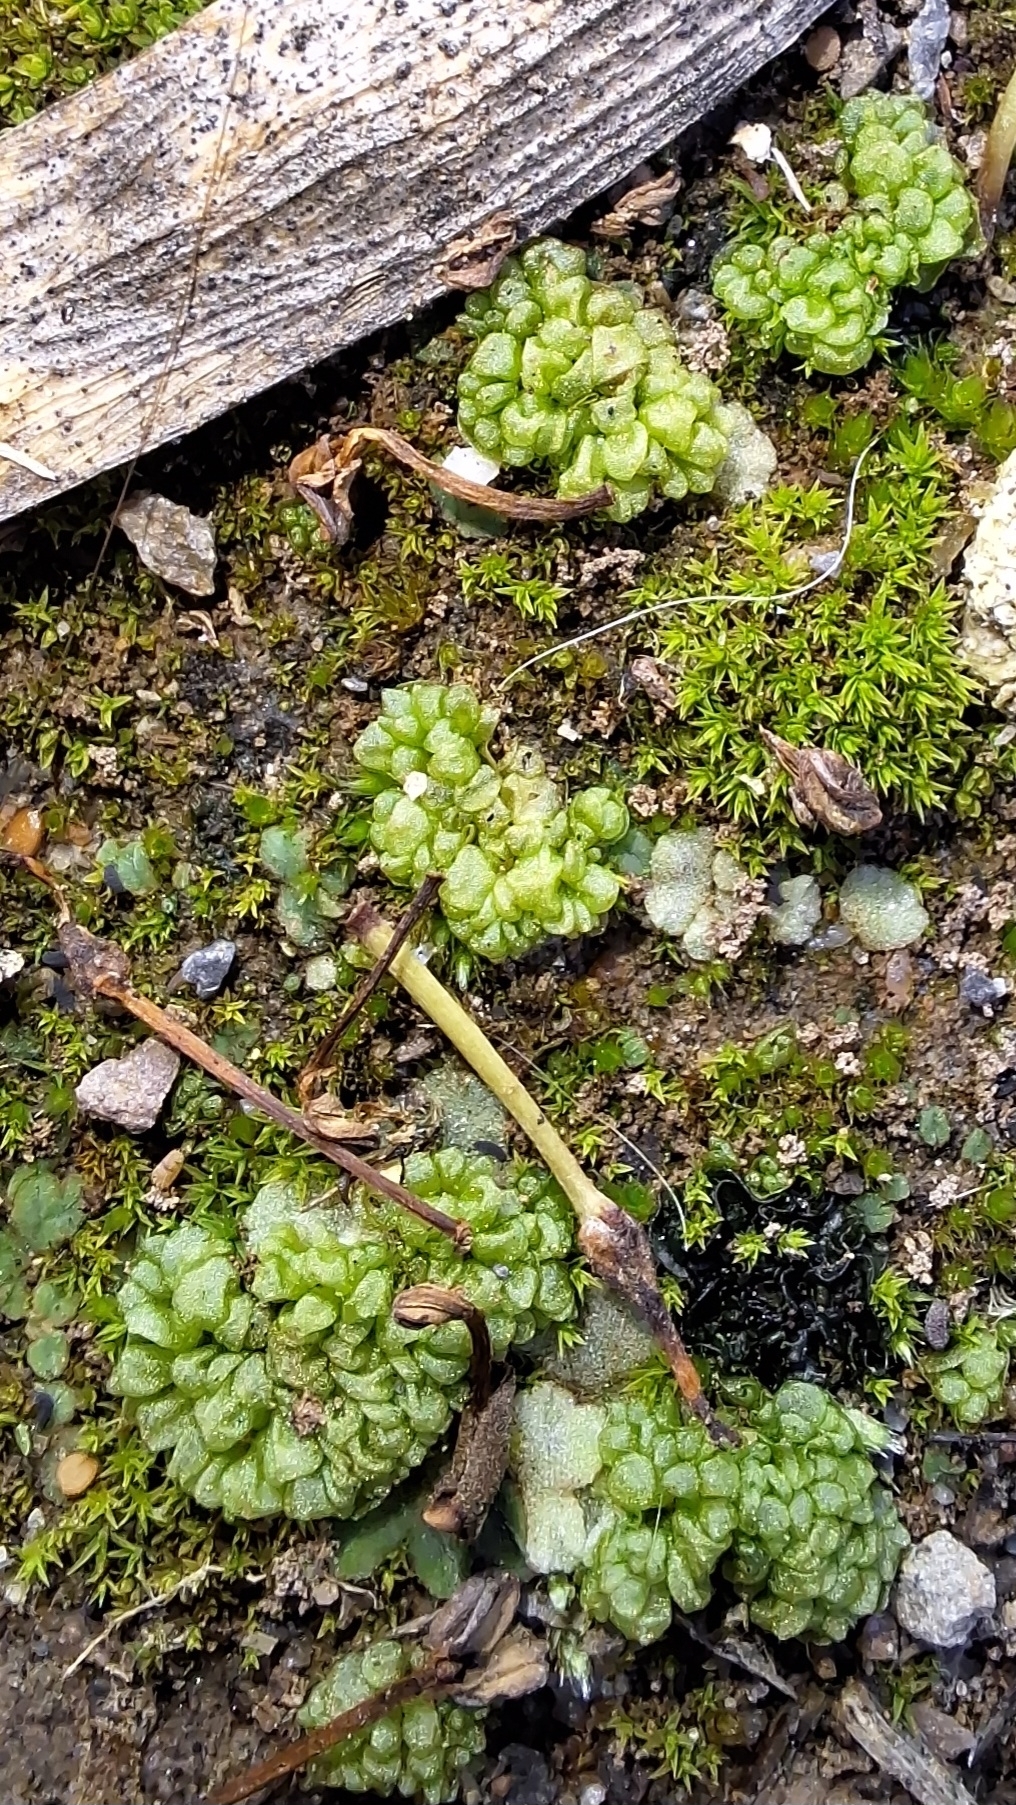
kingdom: Plantae
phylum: Marchantiophyta
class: Marchantiopsida
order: Sphaerocarpales
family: Sphaerocarpaceae
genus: Sphaerocarpos
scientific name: Sphaerocarpos texanus
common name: Texas balloonwort
